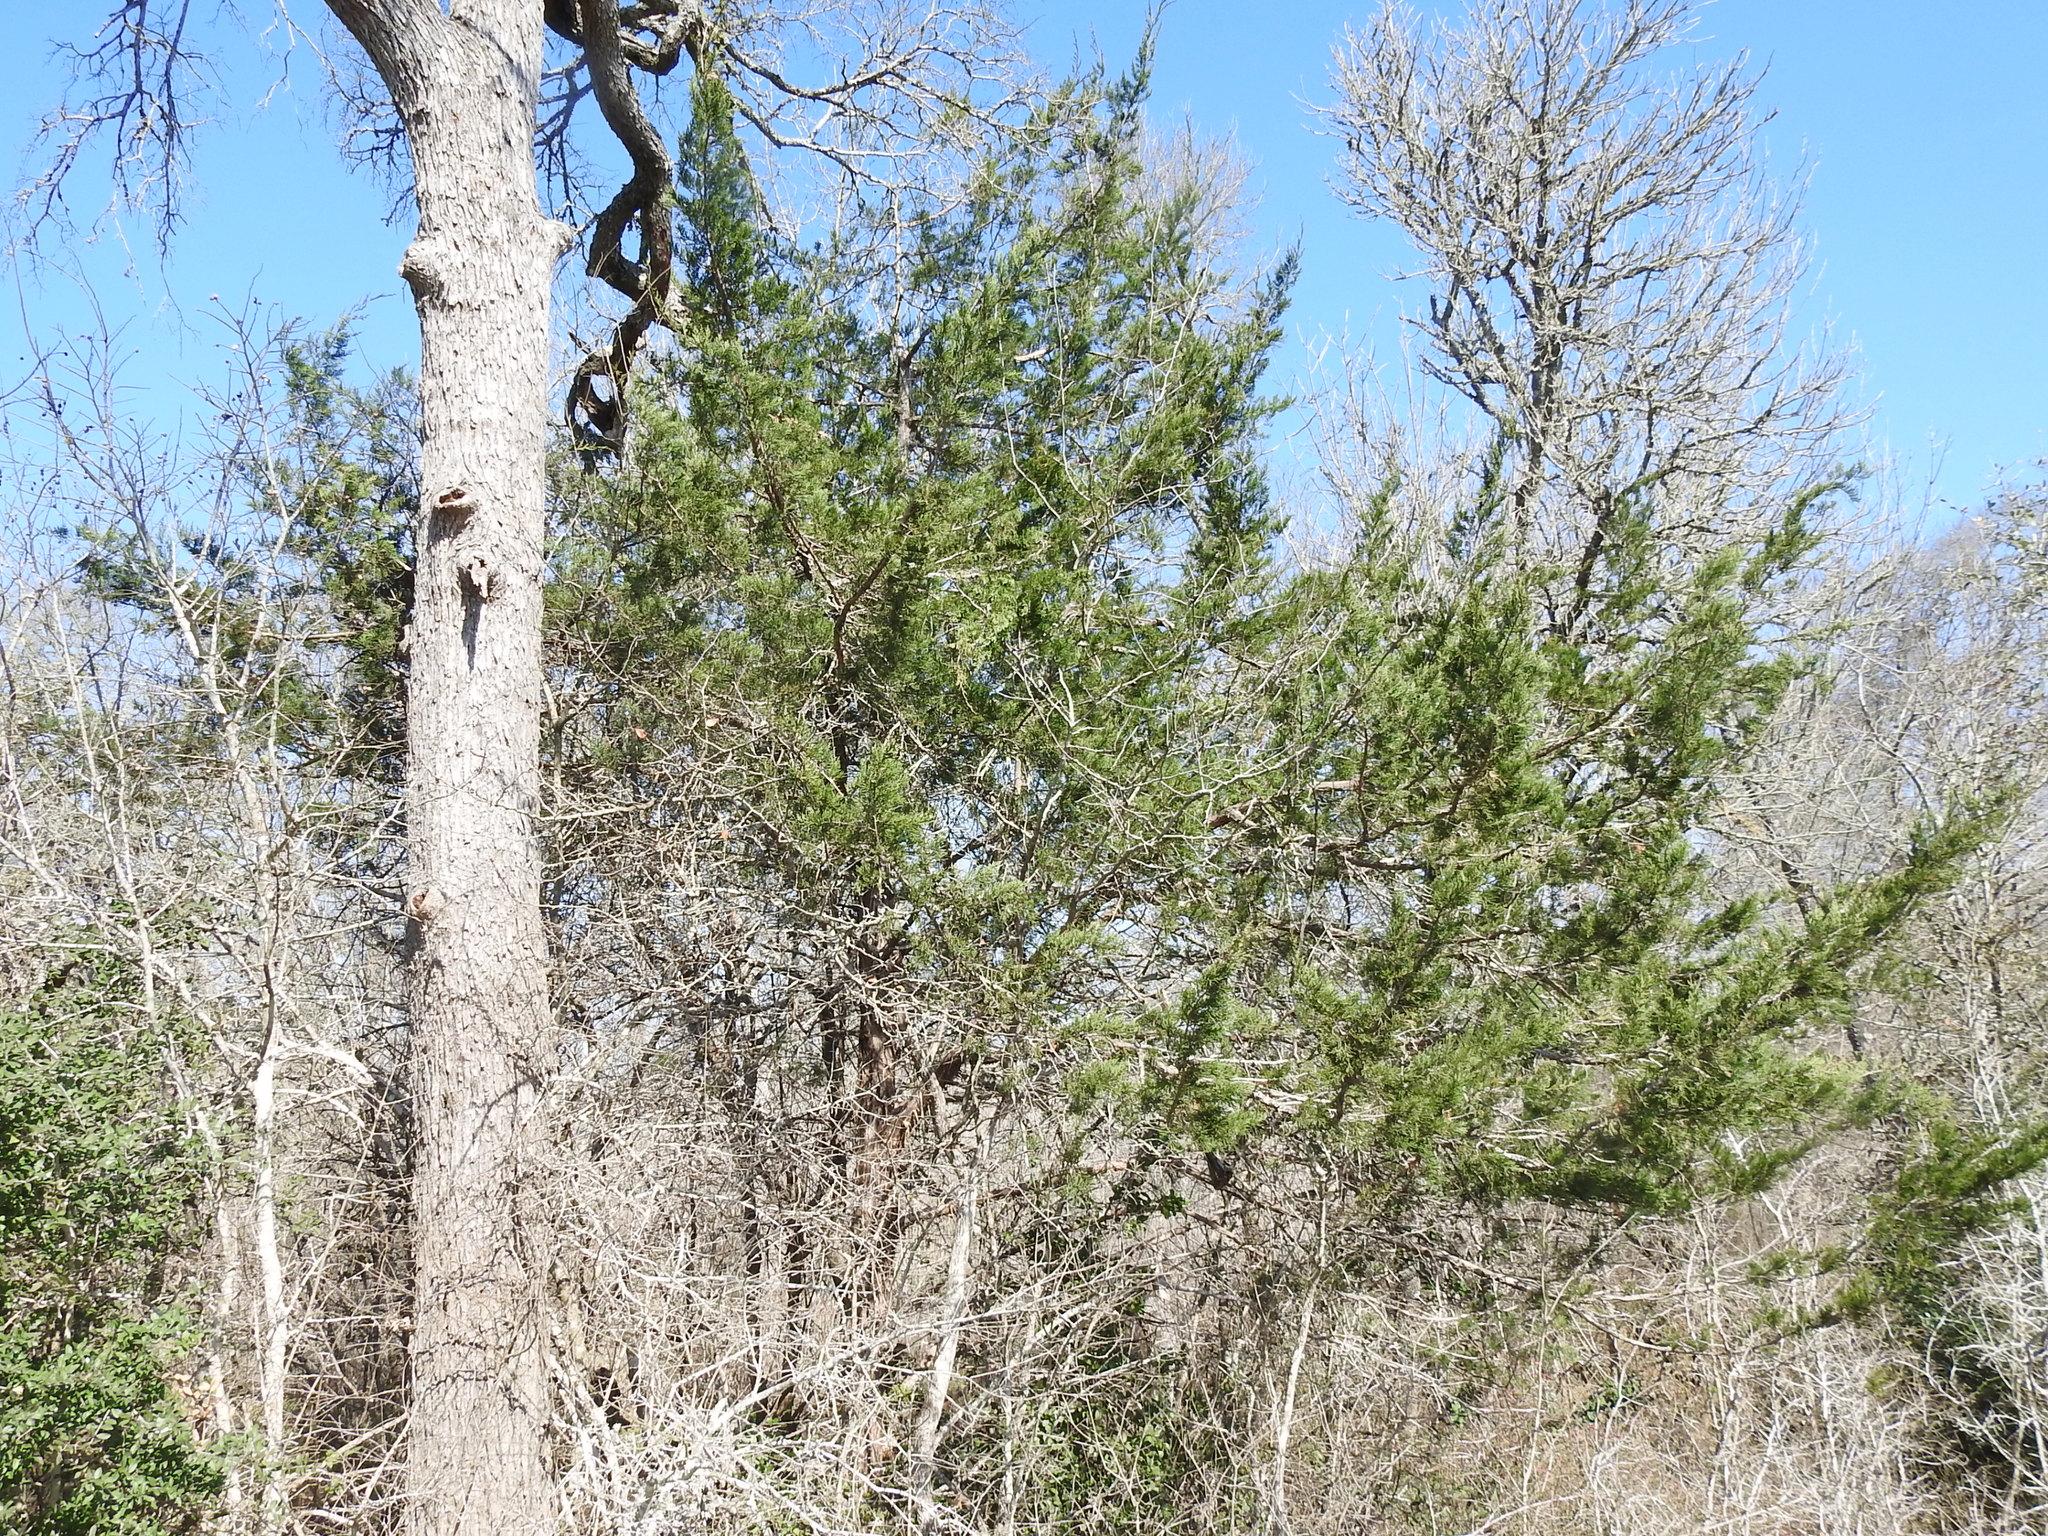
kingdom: Plantae
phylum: Tracheophyta
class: Pinopsida
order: Pinales
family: Cupressaceae
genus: Juniperus
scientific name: Juniperus virginiana
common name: Red juniper
